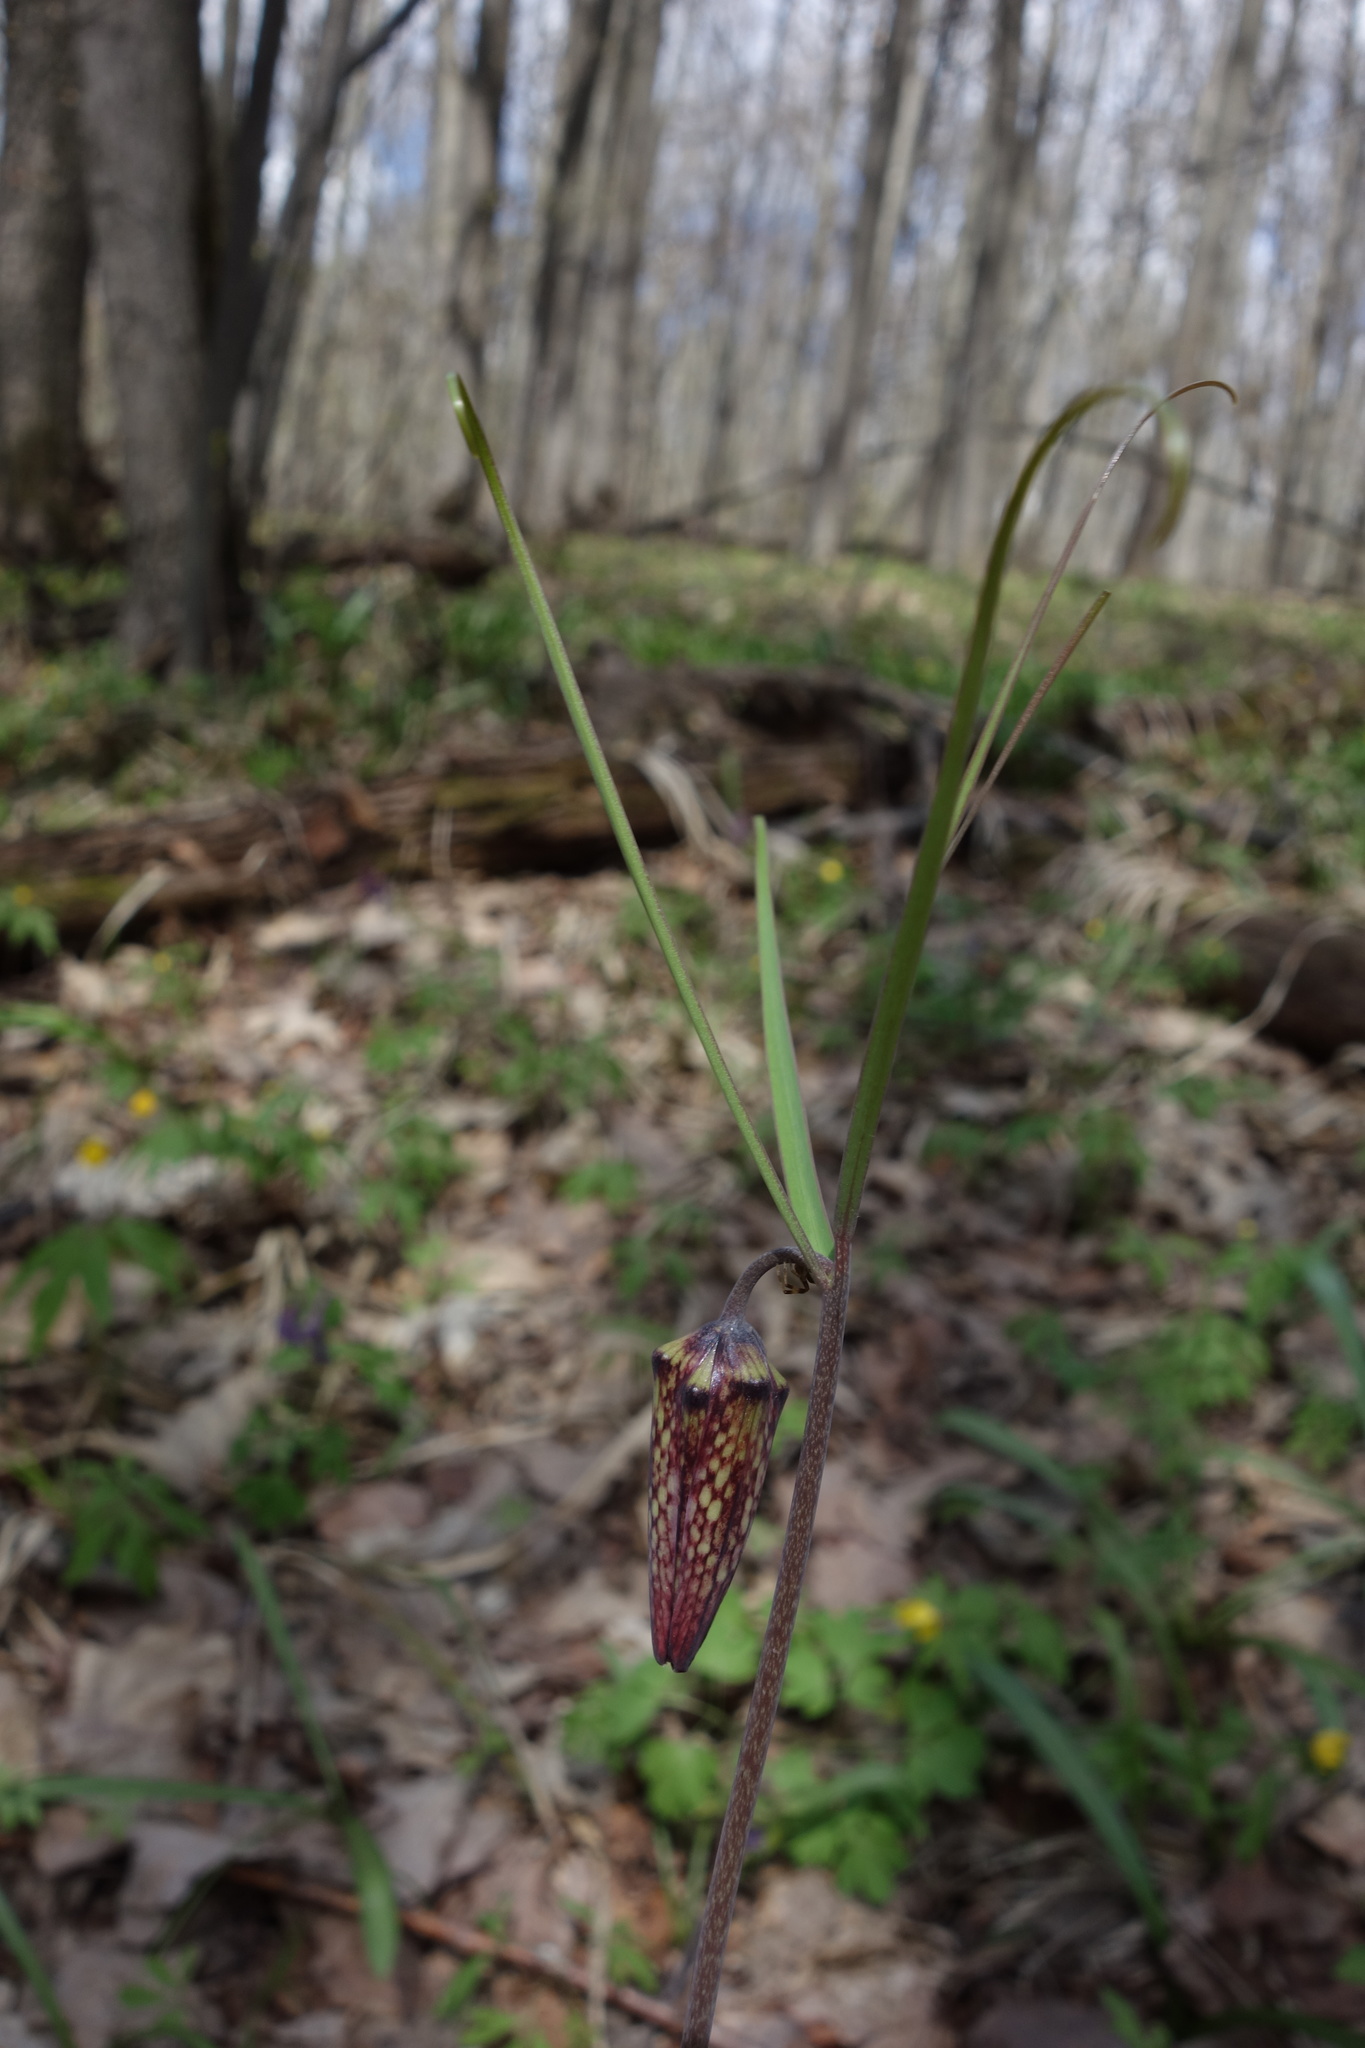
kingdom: Plantae
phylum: Tracheophyta
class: Liliopsida
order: Liliales
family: Liliaceae
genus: Fritillaria
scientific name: Fritillaria ruthenica
